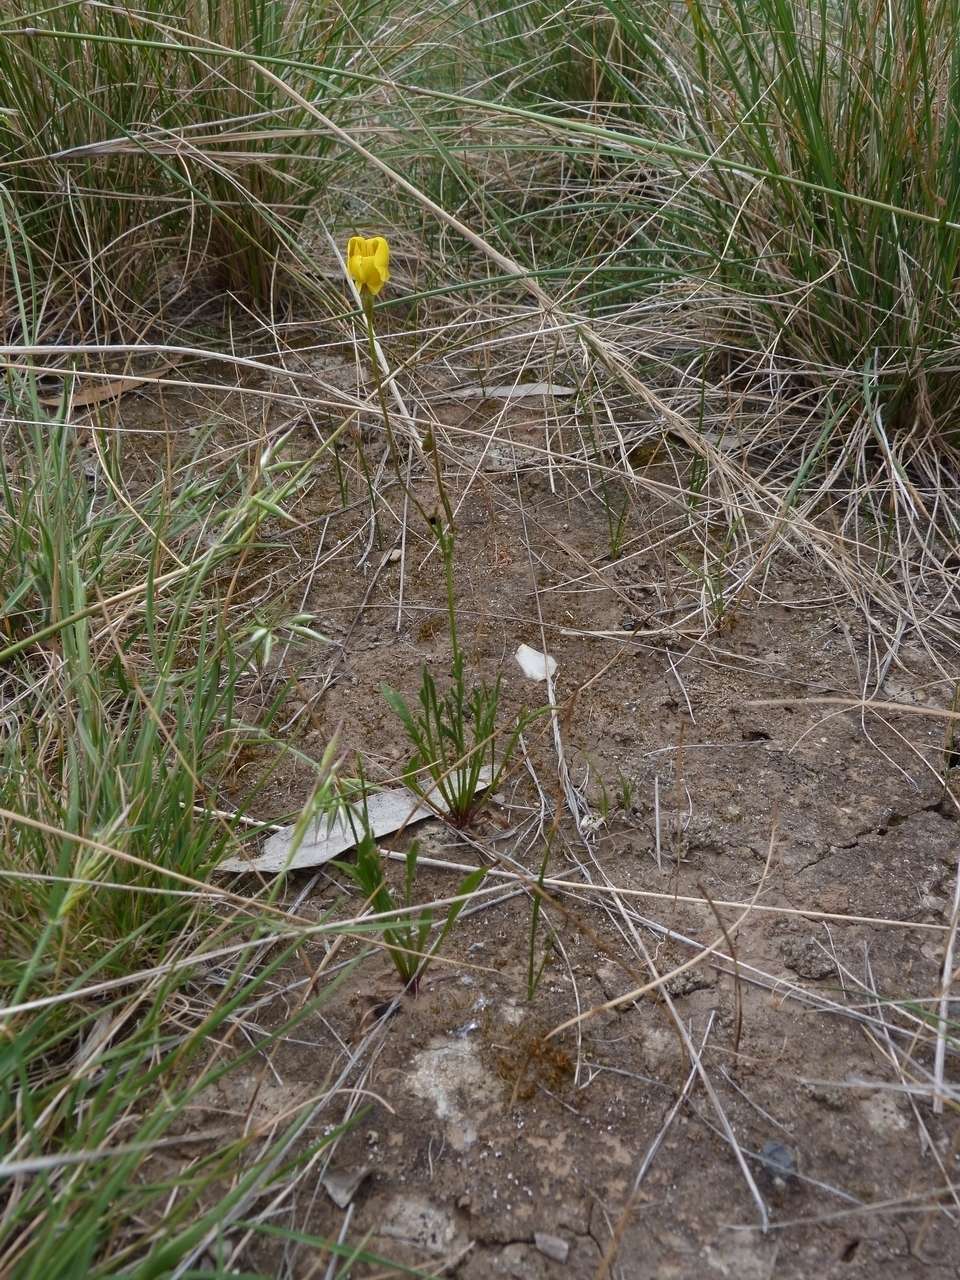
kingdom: Plantae
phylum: Tracheophyta
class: Magnoliopsida
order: Asterales
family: Goodeniaceae
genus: Goodenia
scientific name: Goodenia pinnatifida
